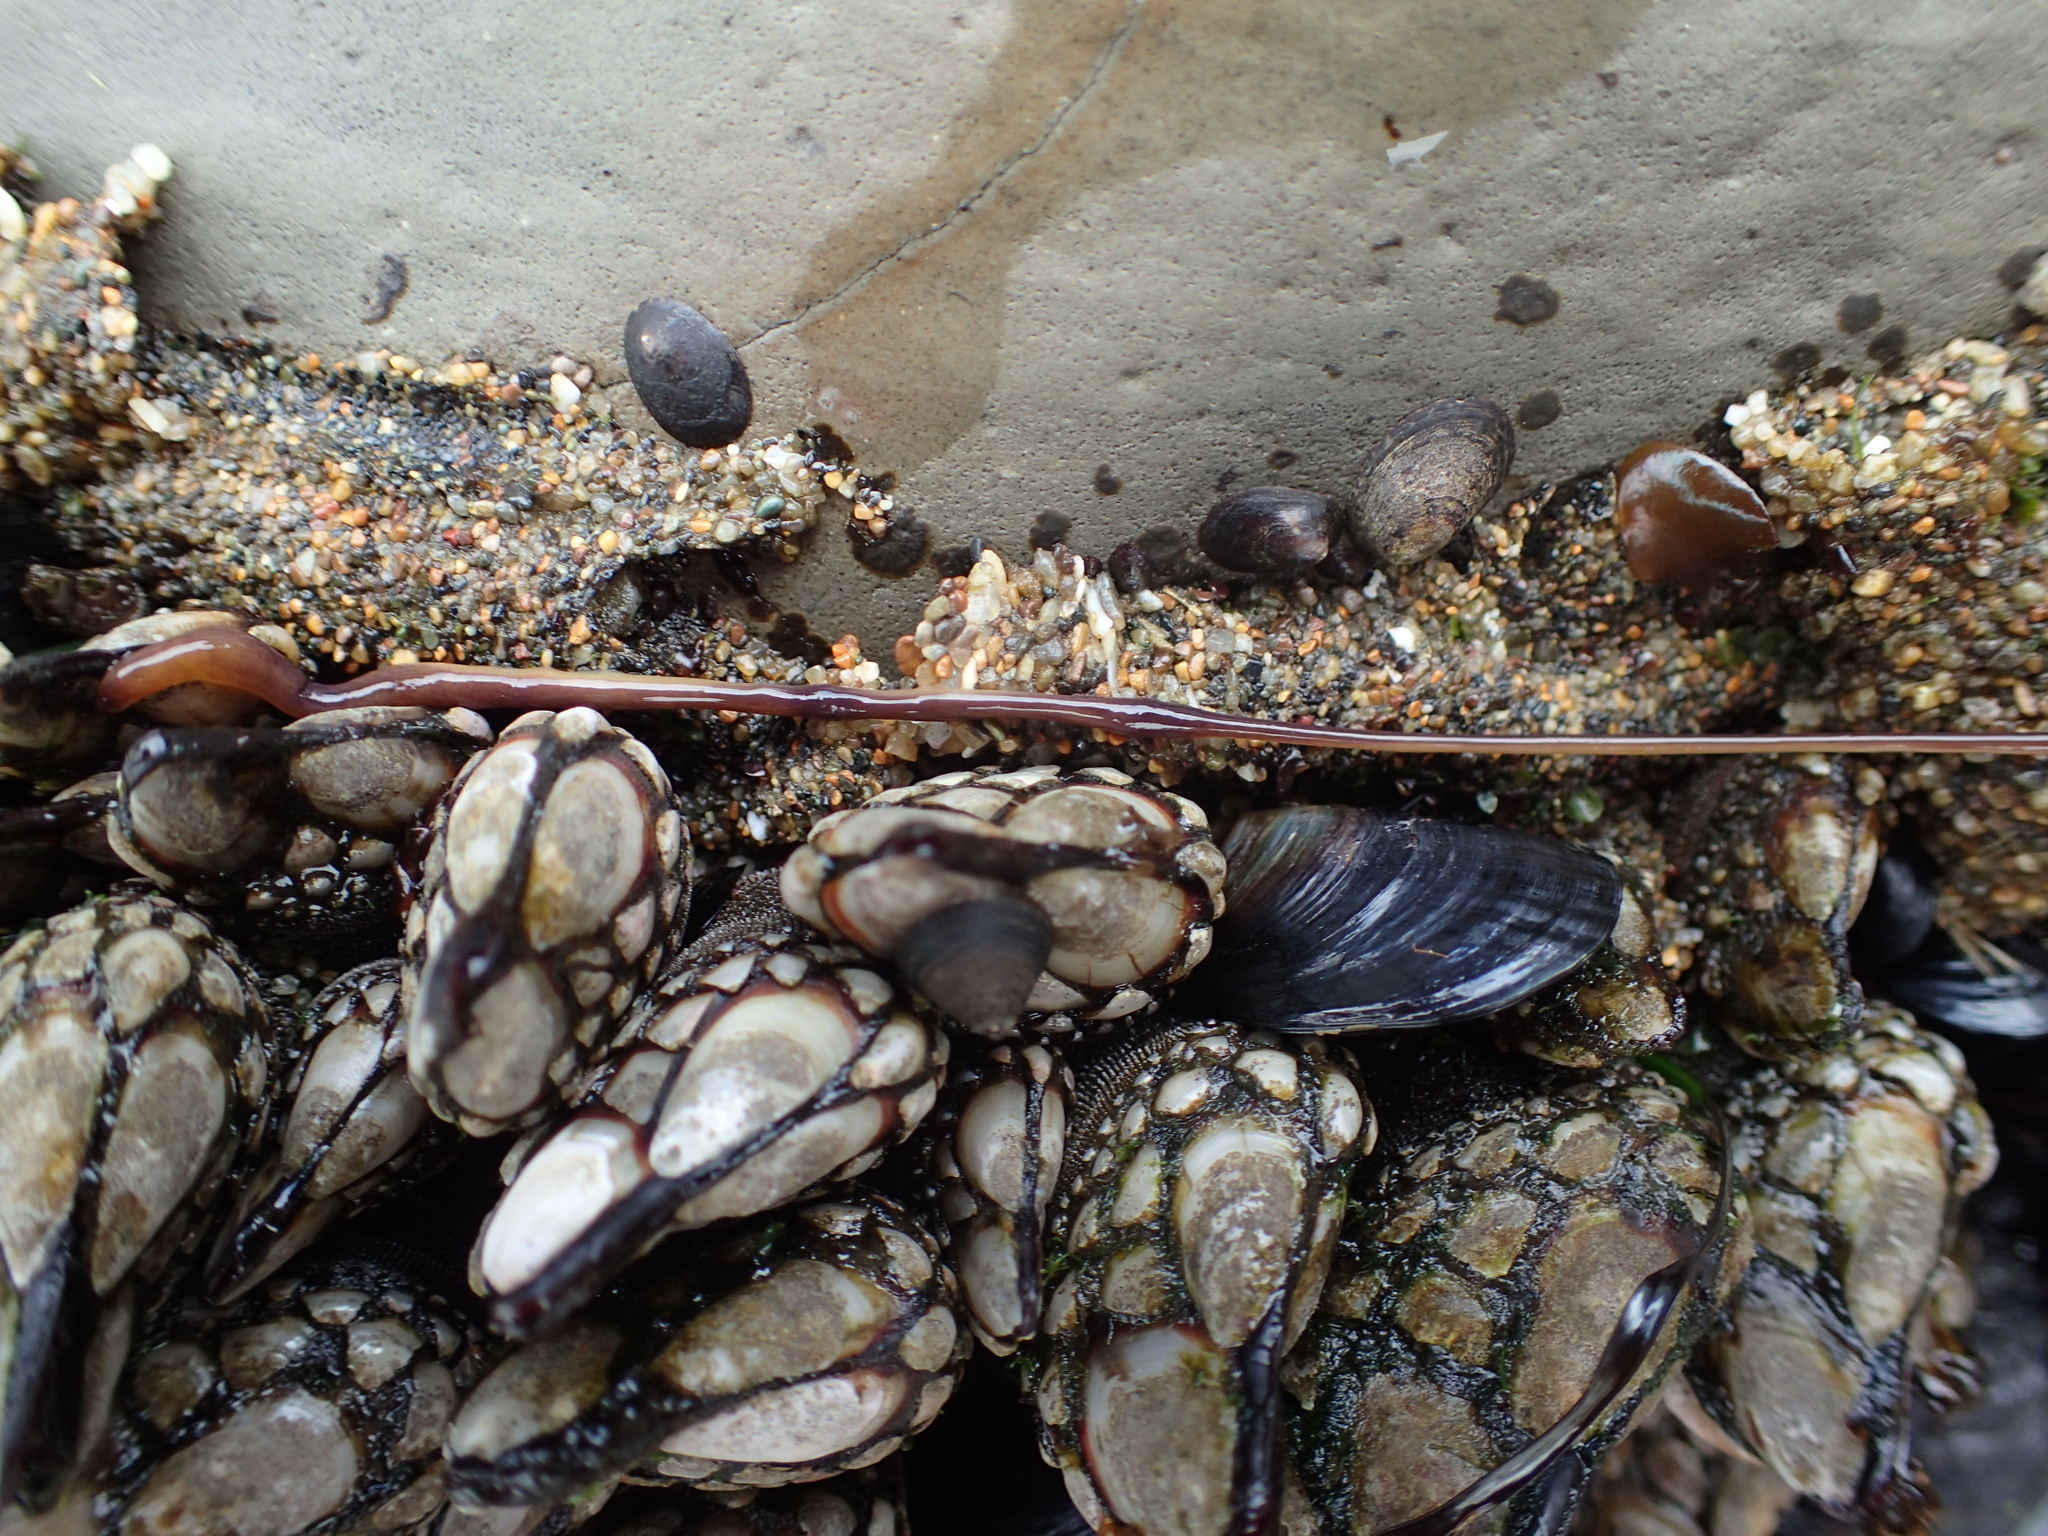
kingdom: Animalia
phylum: Nemertea
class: Hoplonemertea
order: Monostilifera
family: Neesiidae
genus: Paranemertes
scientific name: Paranemertes peregrina
